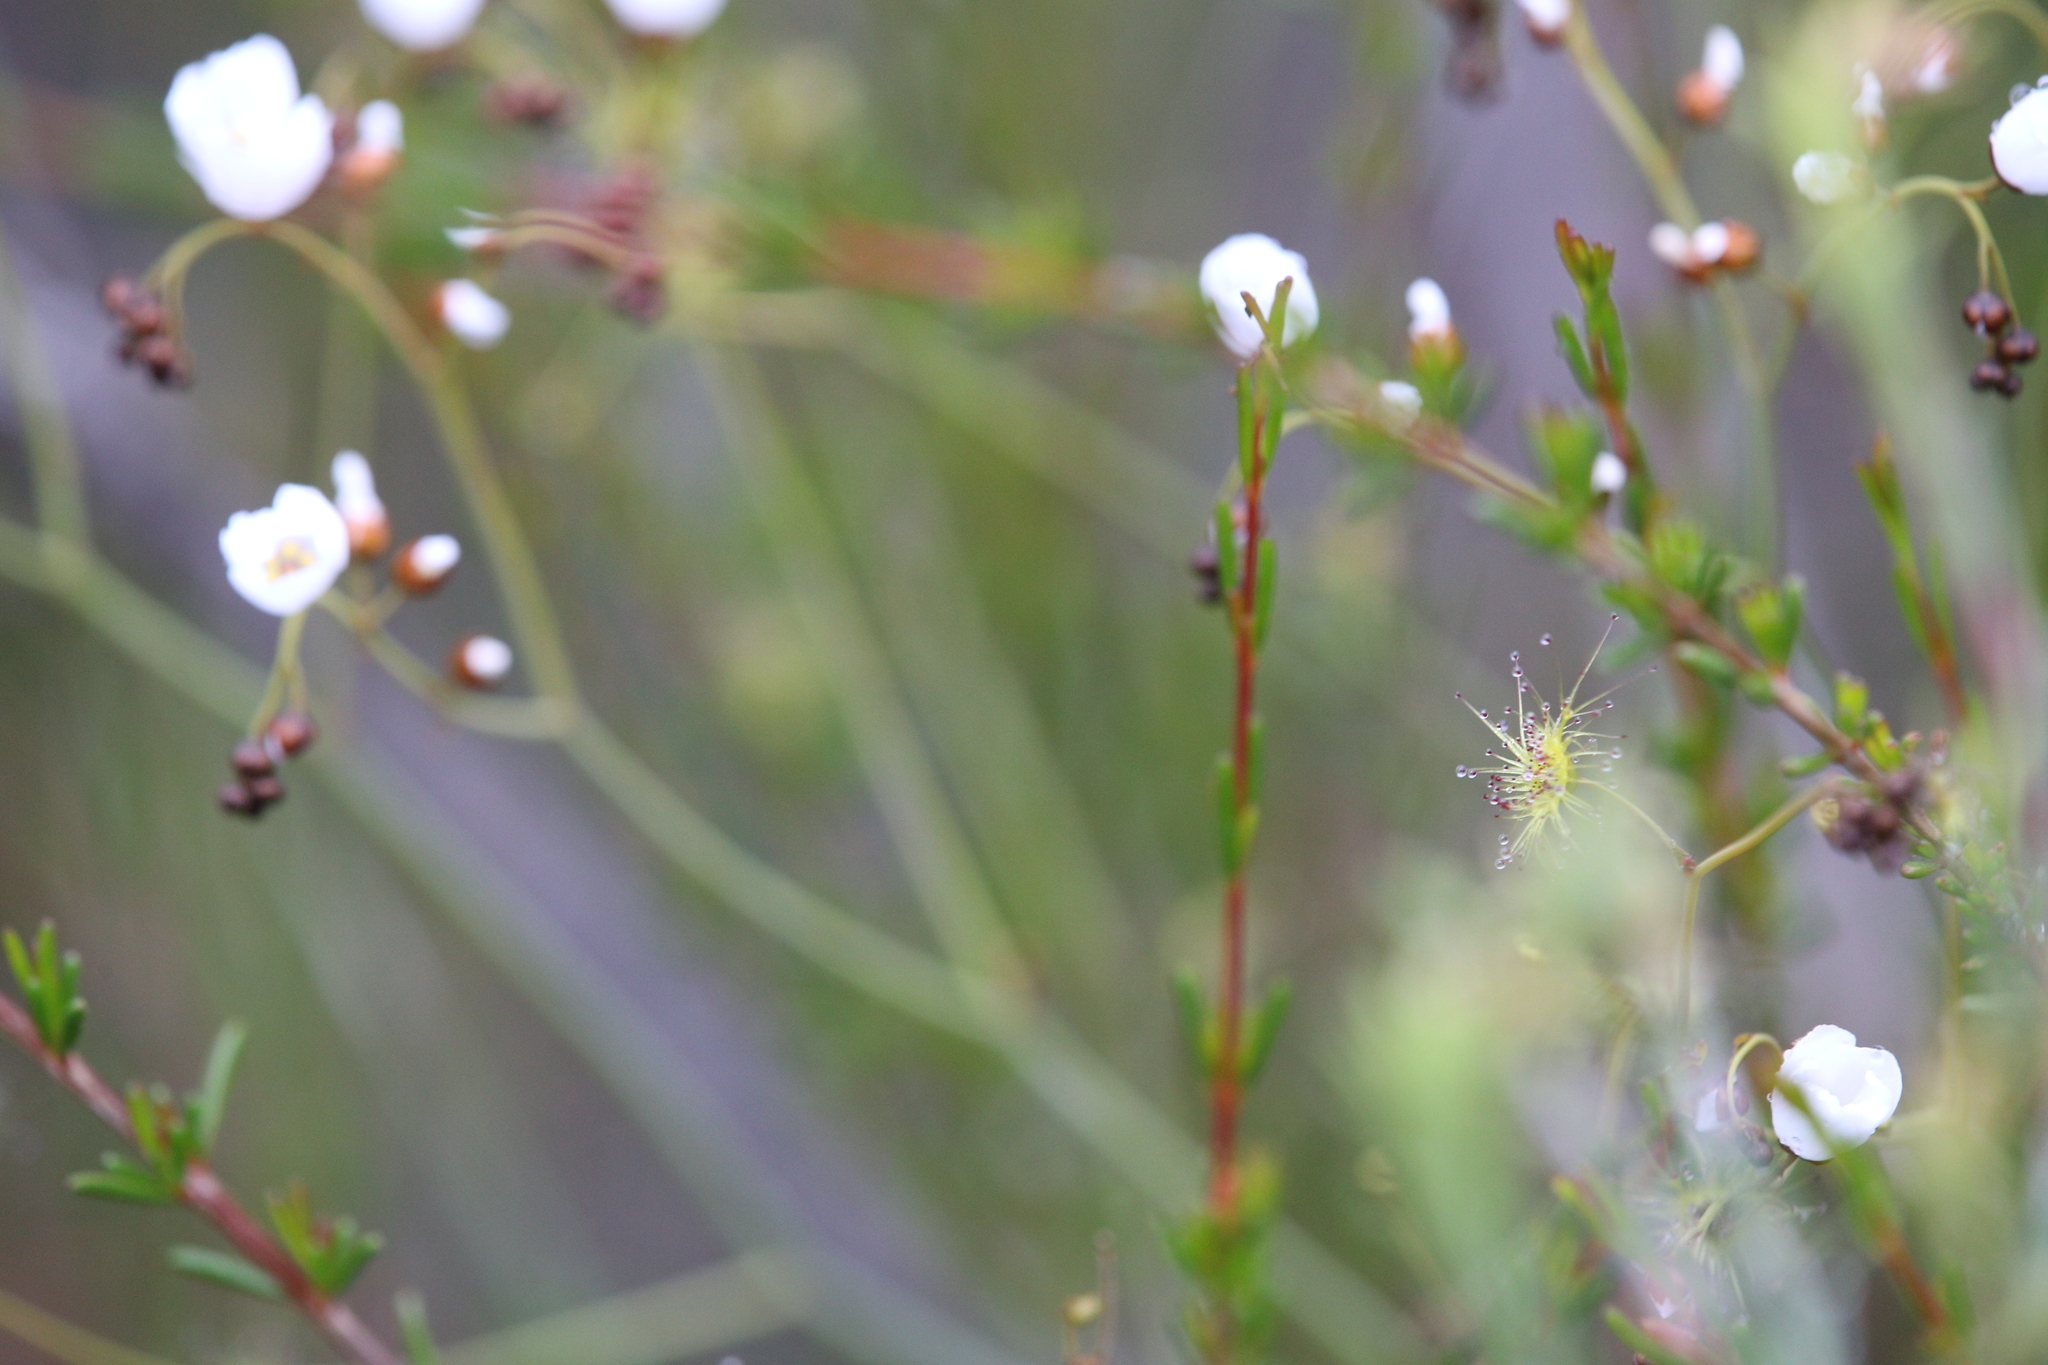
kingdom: Plantae
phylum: Tracheophyta
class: Magnoliopsida
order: Caryophyllales
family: Droseraceae
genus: Drosera
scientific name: Drosera gigantea
